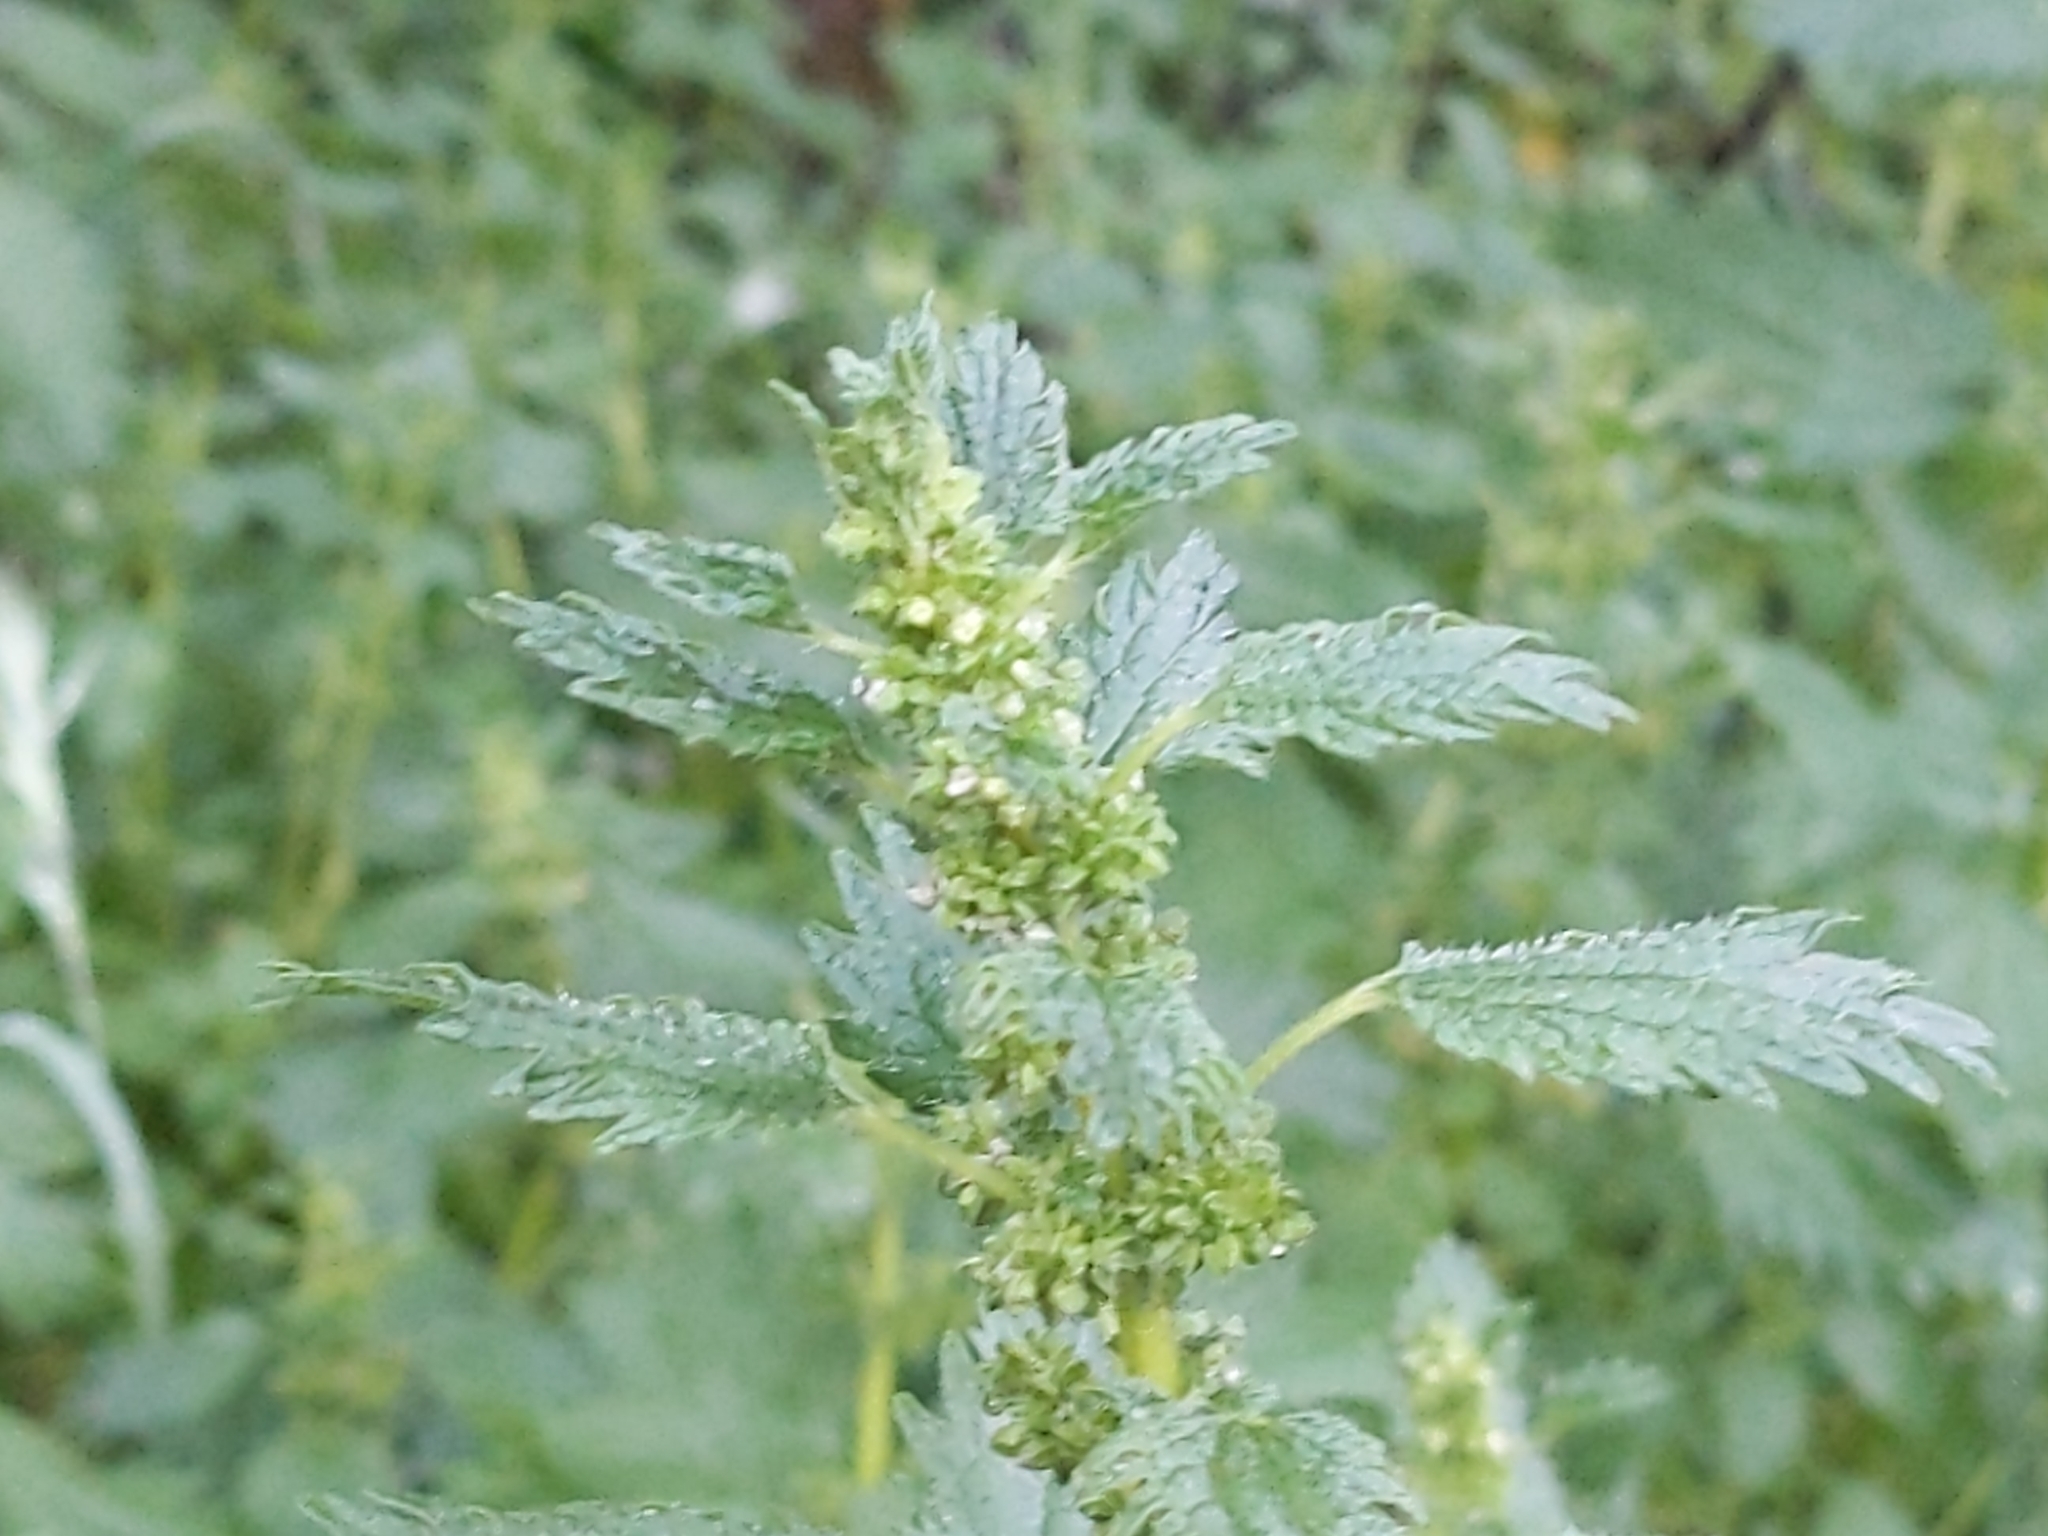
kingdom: Plantae
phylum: Tracheophyta
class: Magnoliopsida
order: Rosales
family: Urticaceae
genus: Urtica
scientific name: Urtica urens
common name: Dwarf nettle
